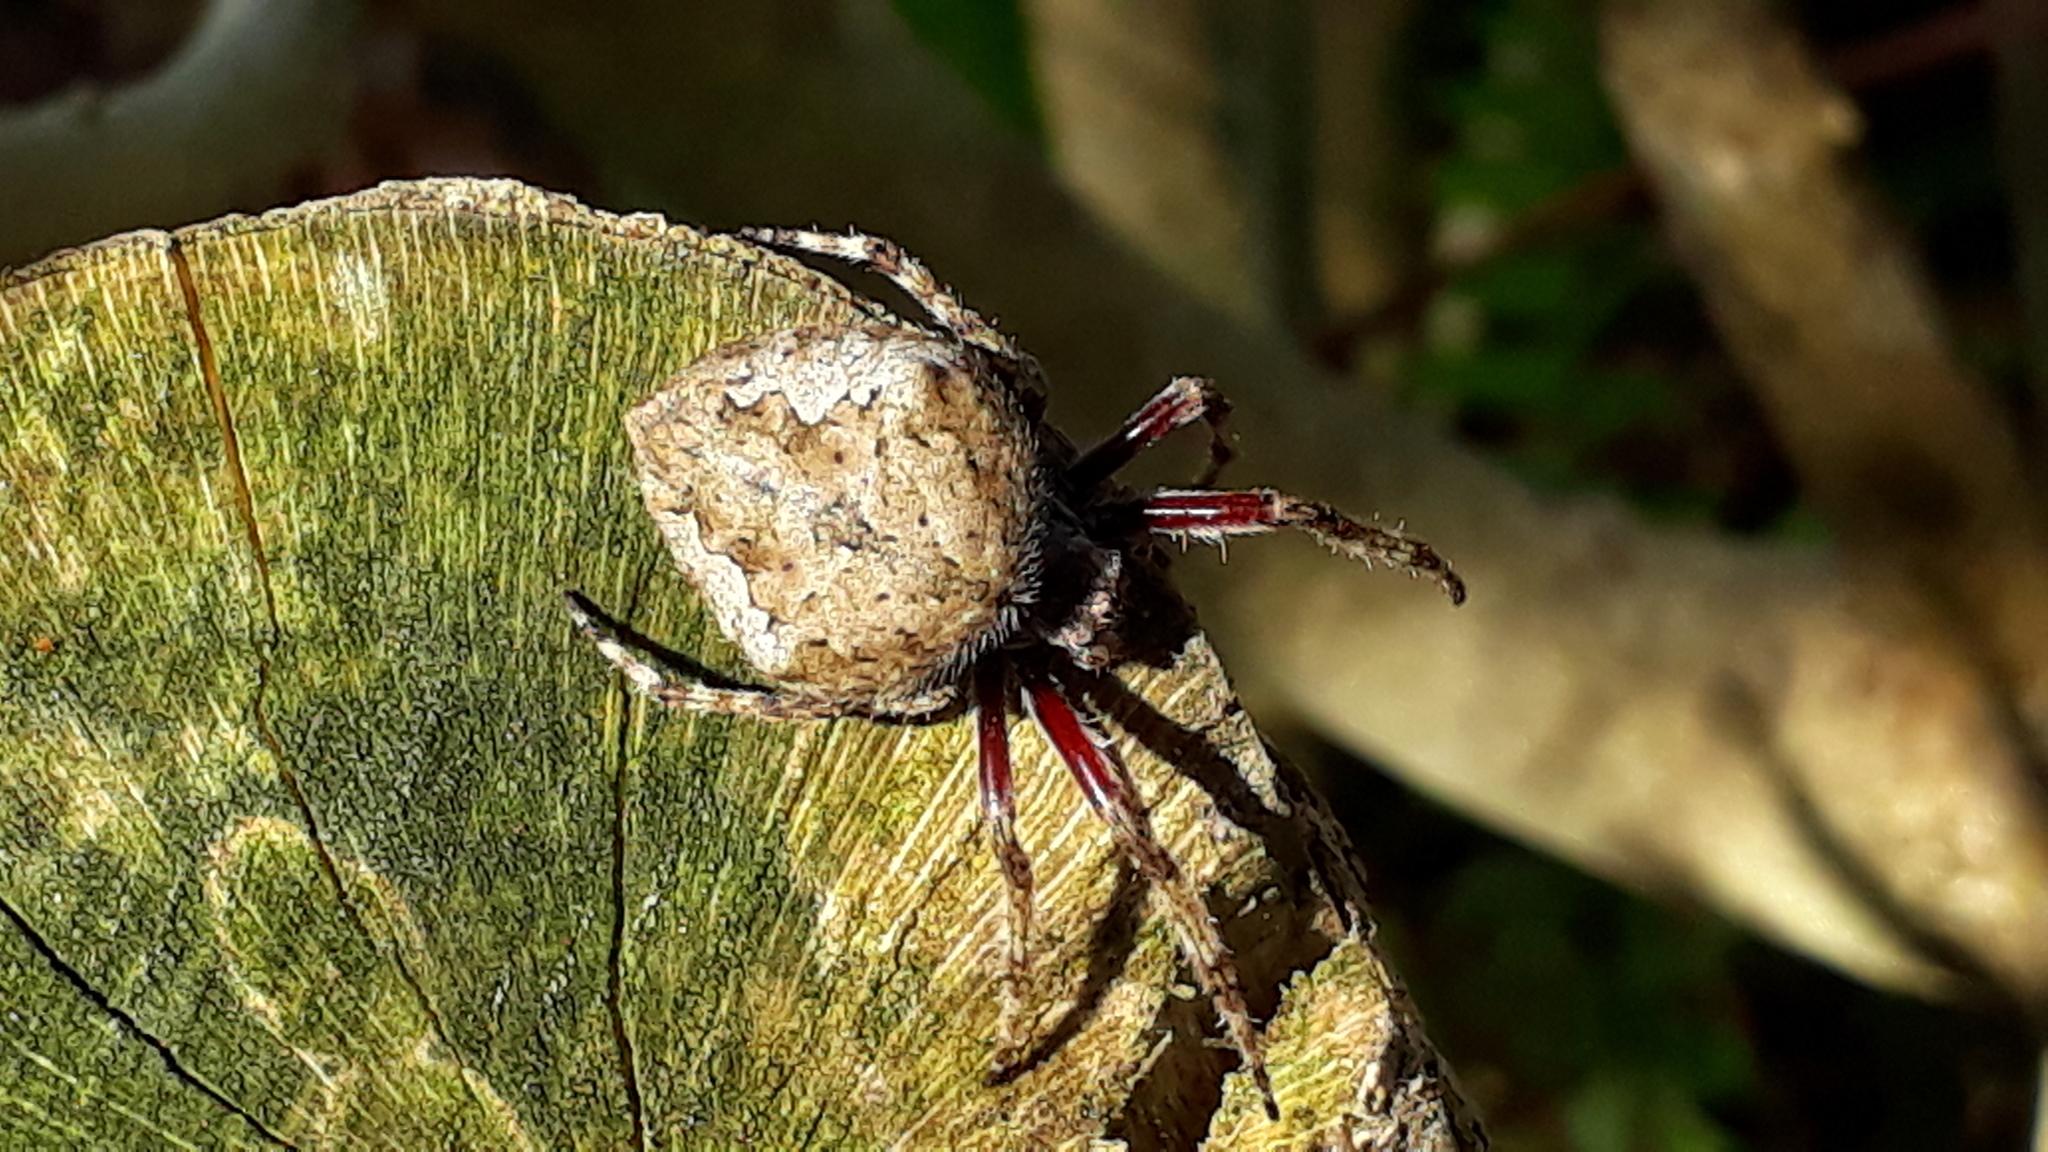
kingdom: Animalia
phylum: Arthropoda
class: Arachnida
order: Araneae
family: Araneidae
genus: Eriophora
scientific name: Eriophora pustulosa
